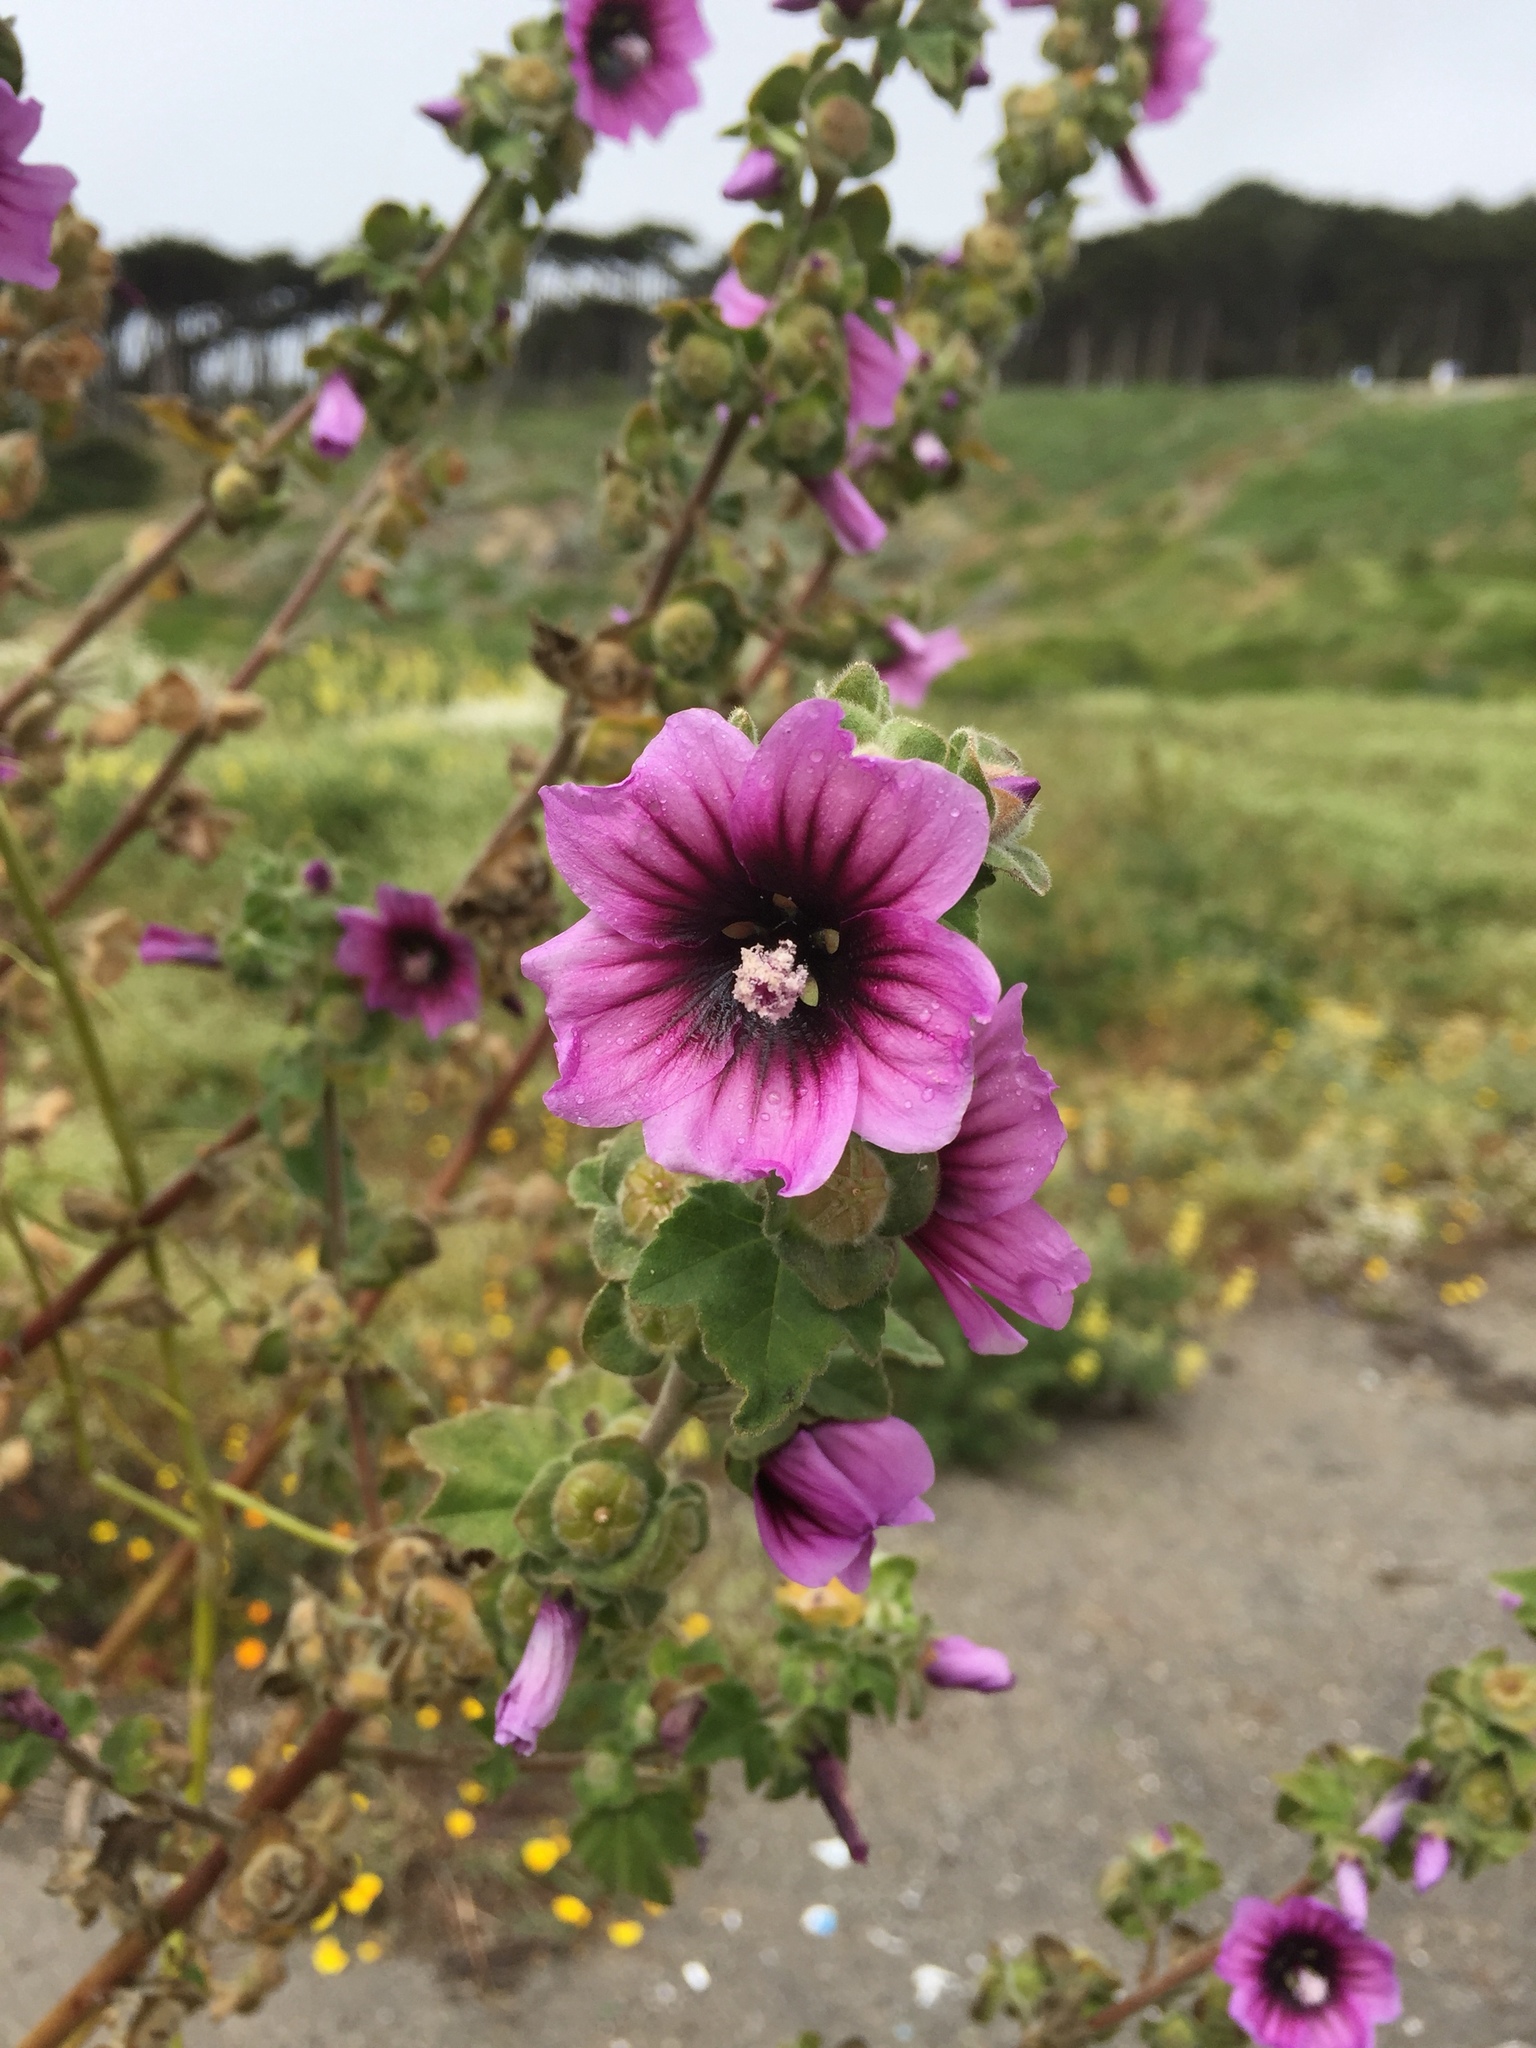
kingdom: Plantae
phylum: Tracheophyta
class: Magnoliopsida
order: Malvales
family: Malvaceae
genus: Malva
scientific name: Malva arborea
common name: Tree mallow
